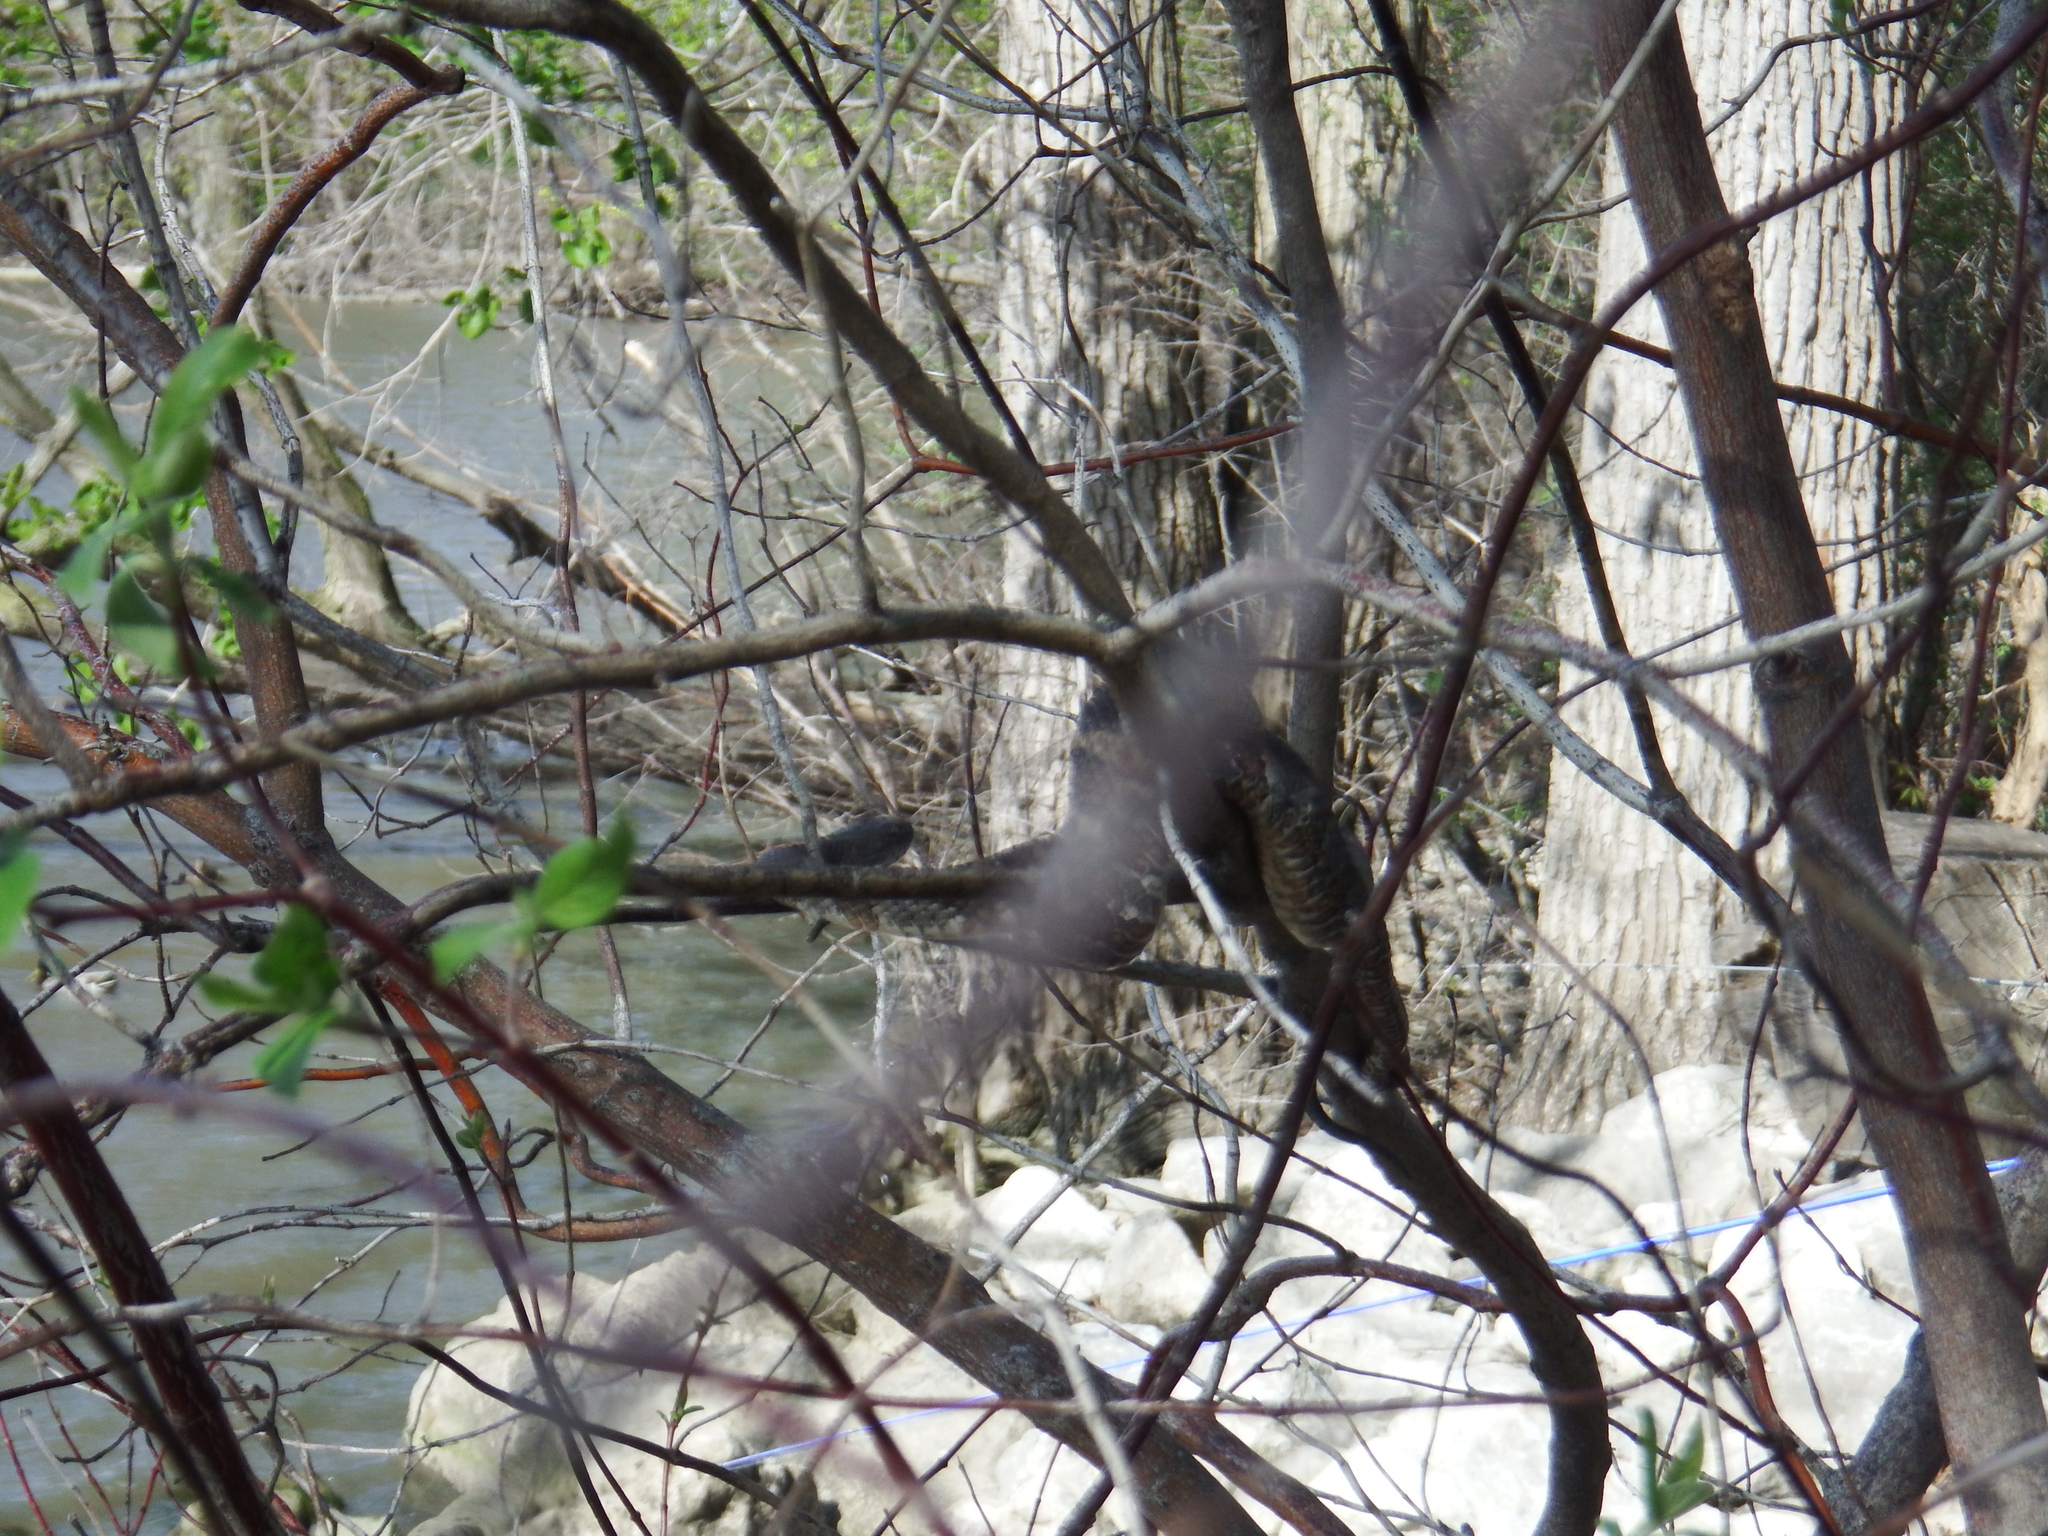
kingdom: Animalia
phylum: Chordata
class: Squamata
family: Colubridae
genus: Nerodia
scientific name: Nerodia sipedon
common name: Northern water snake
